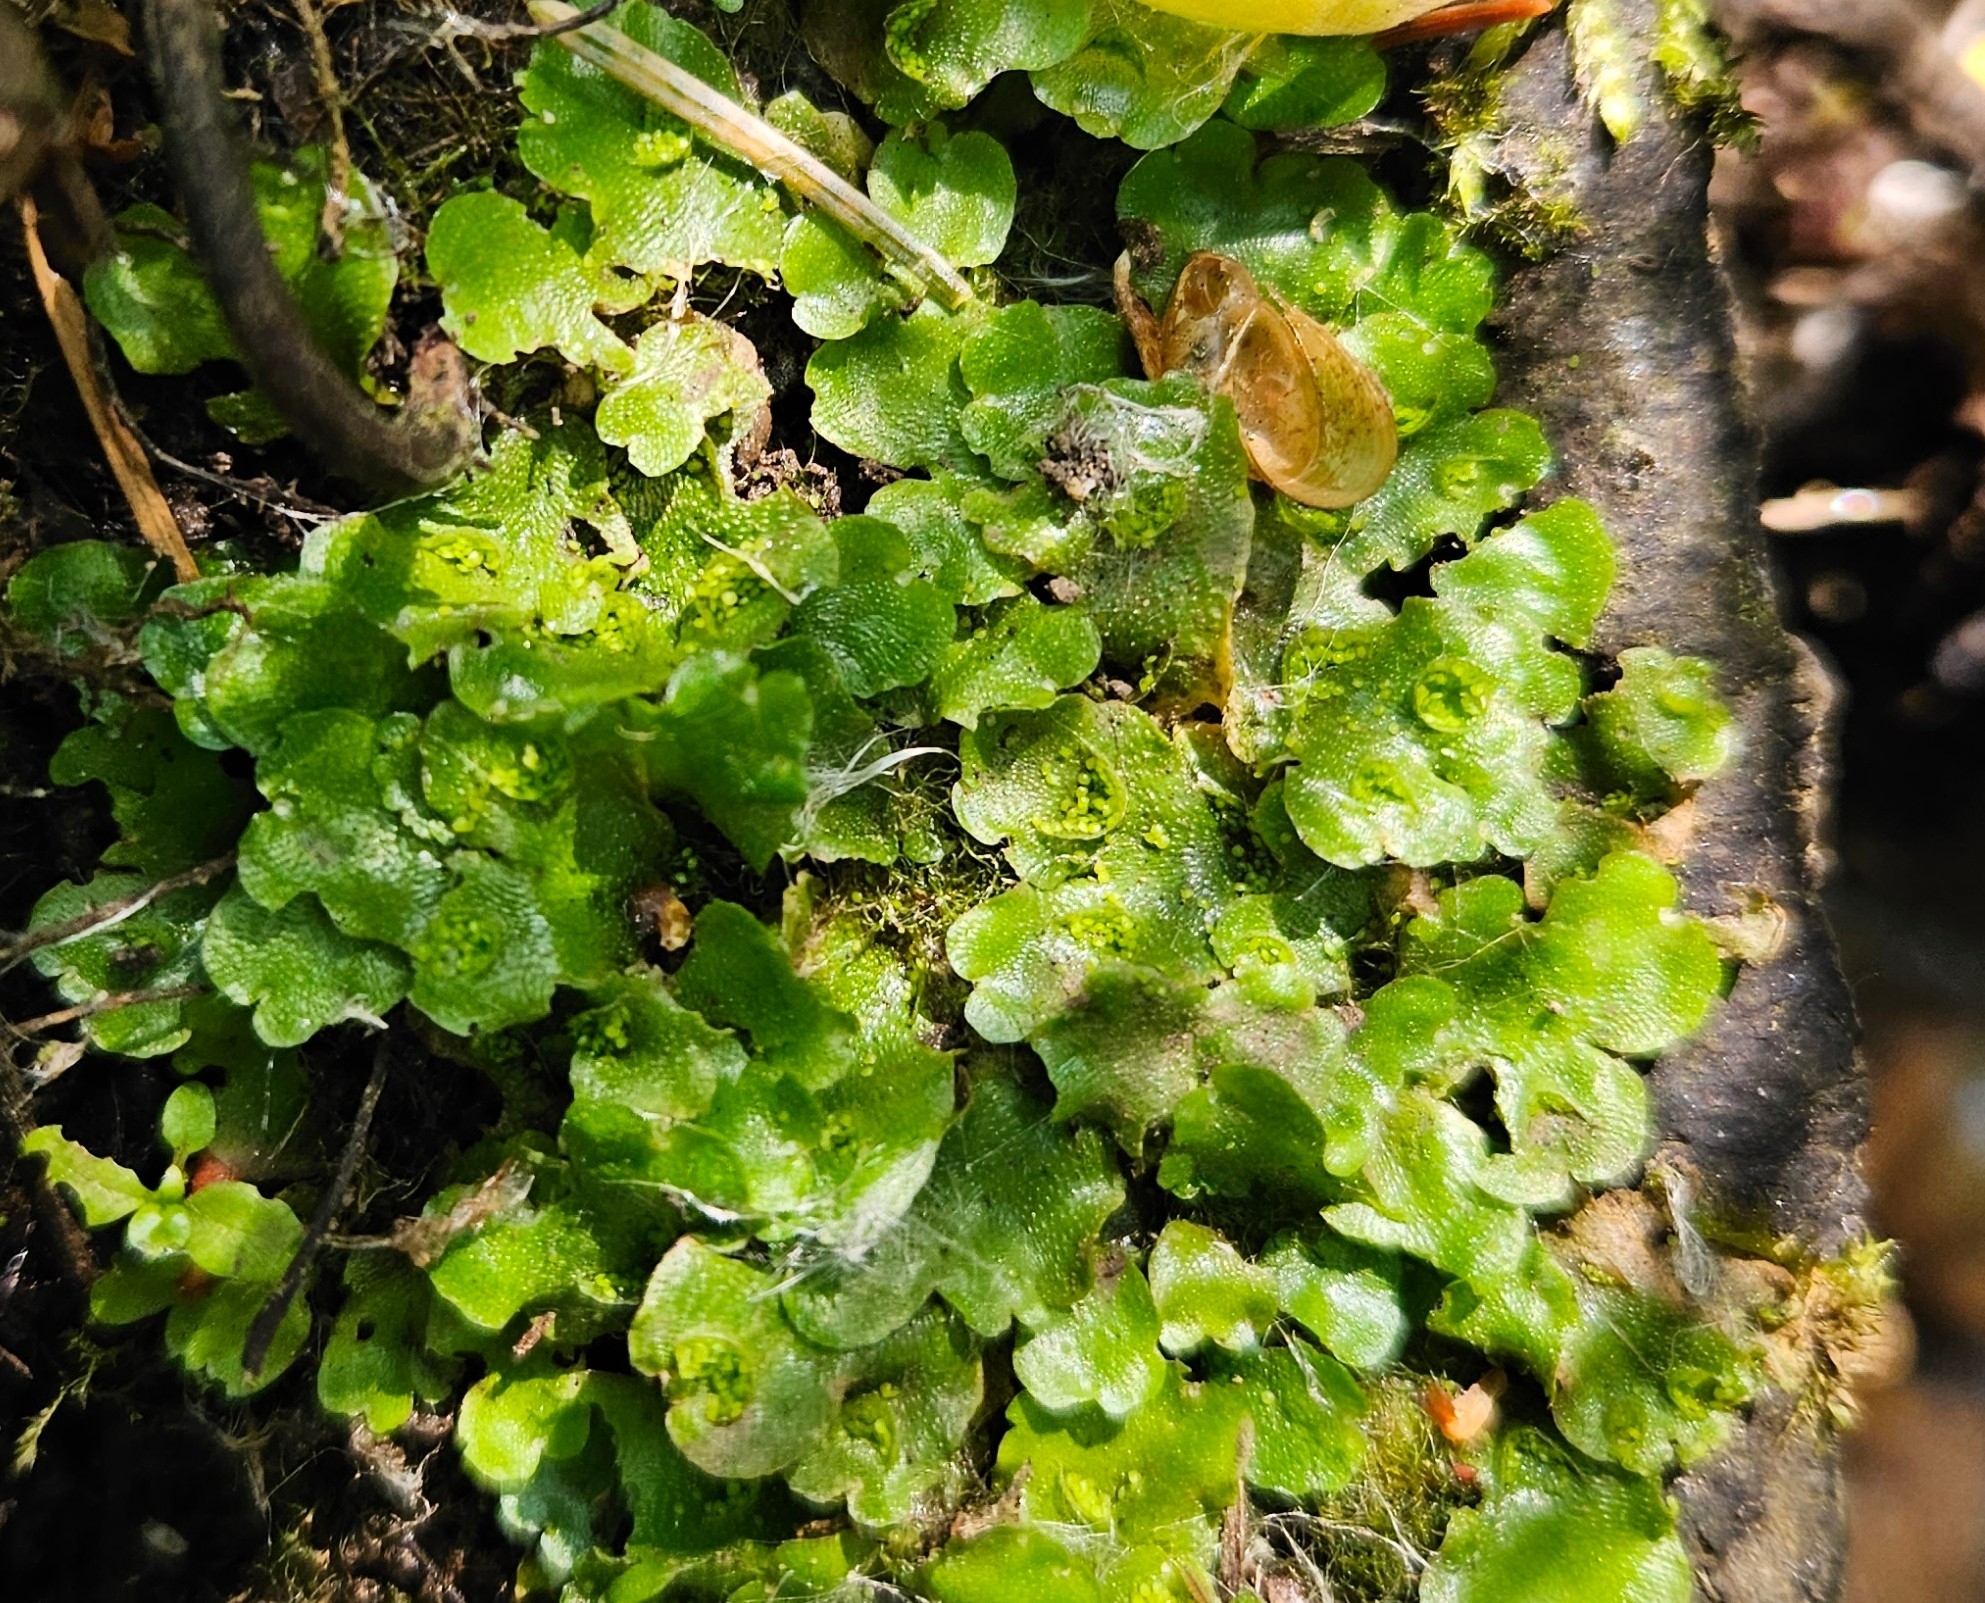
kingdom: Plantae
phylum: Marchantiophyta
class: Marchantiopsida
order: Lunulariales
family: Lunulariaceae
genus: Lunularia
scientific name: Lunularia cruciata
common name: Crescent-cup liverwort
